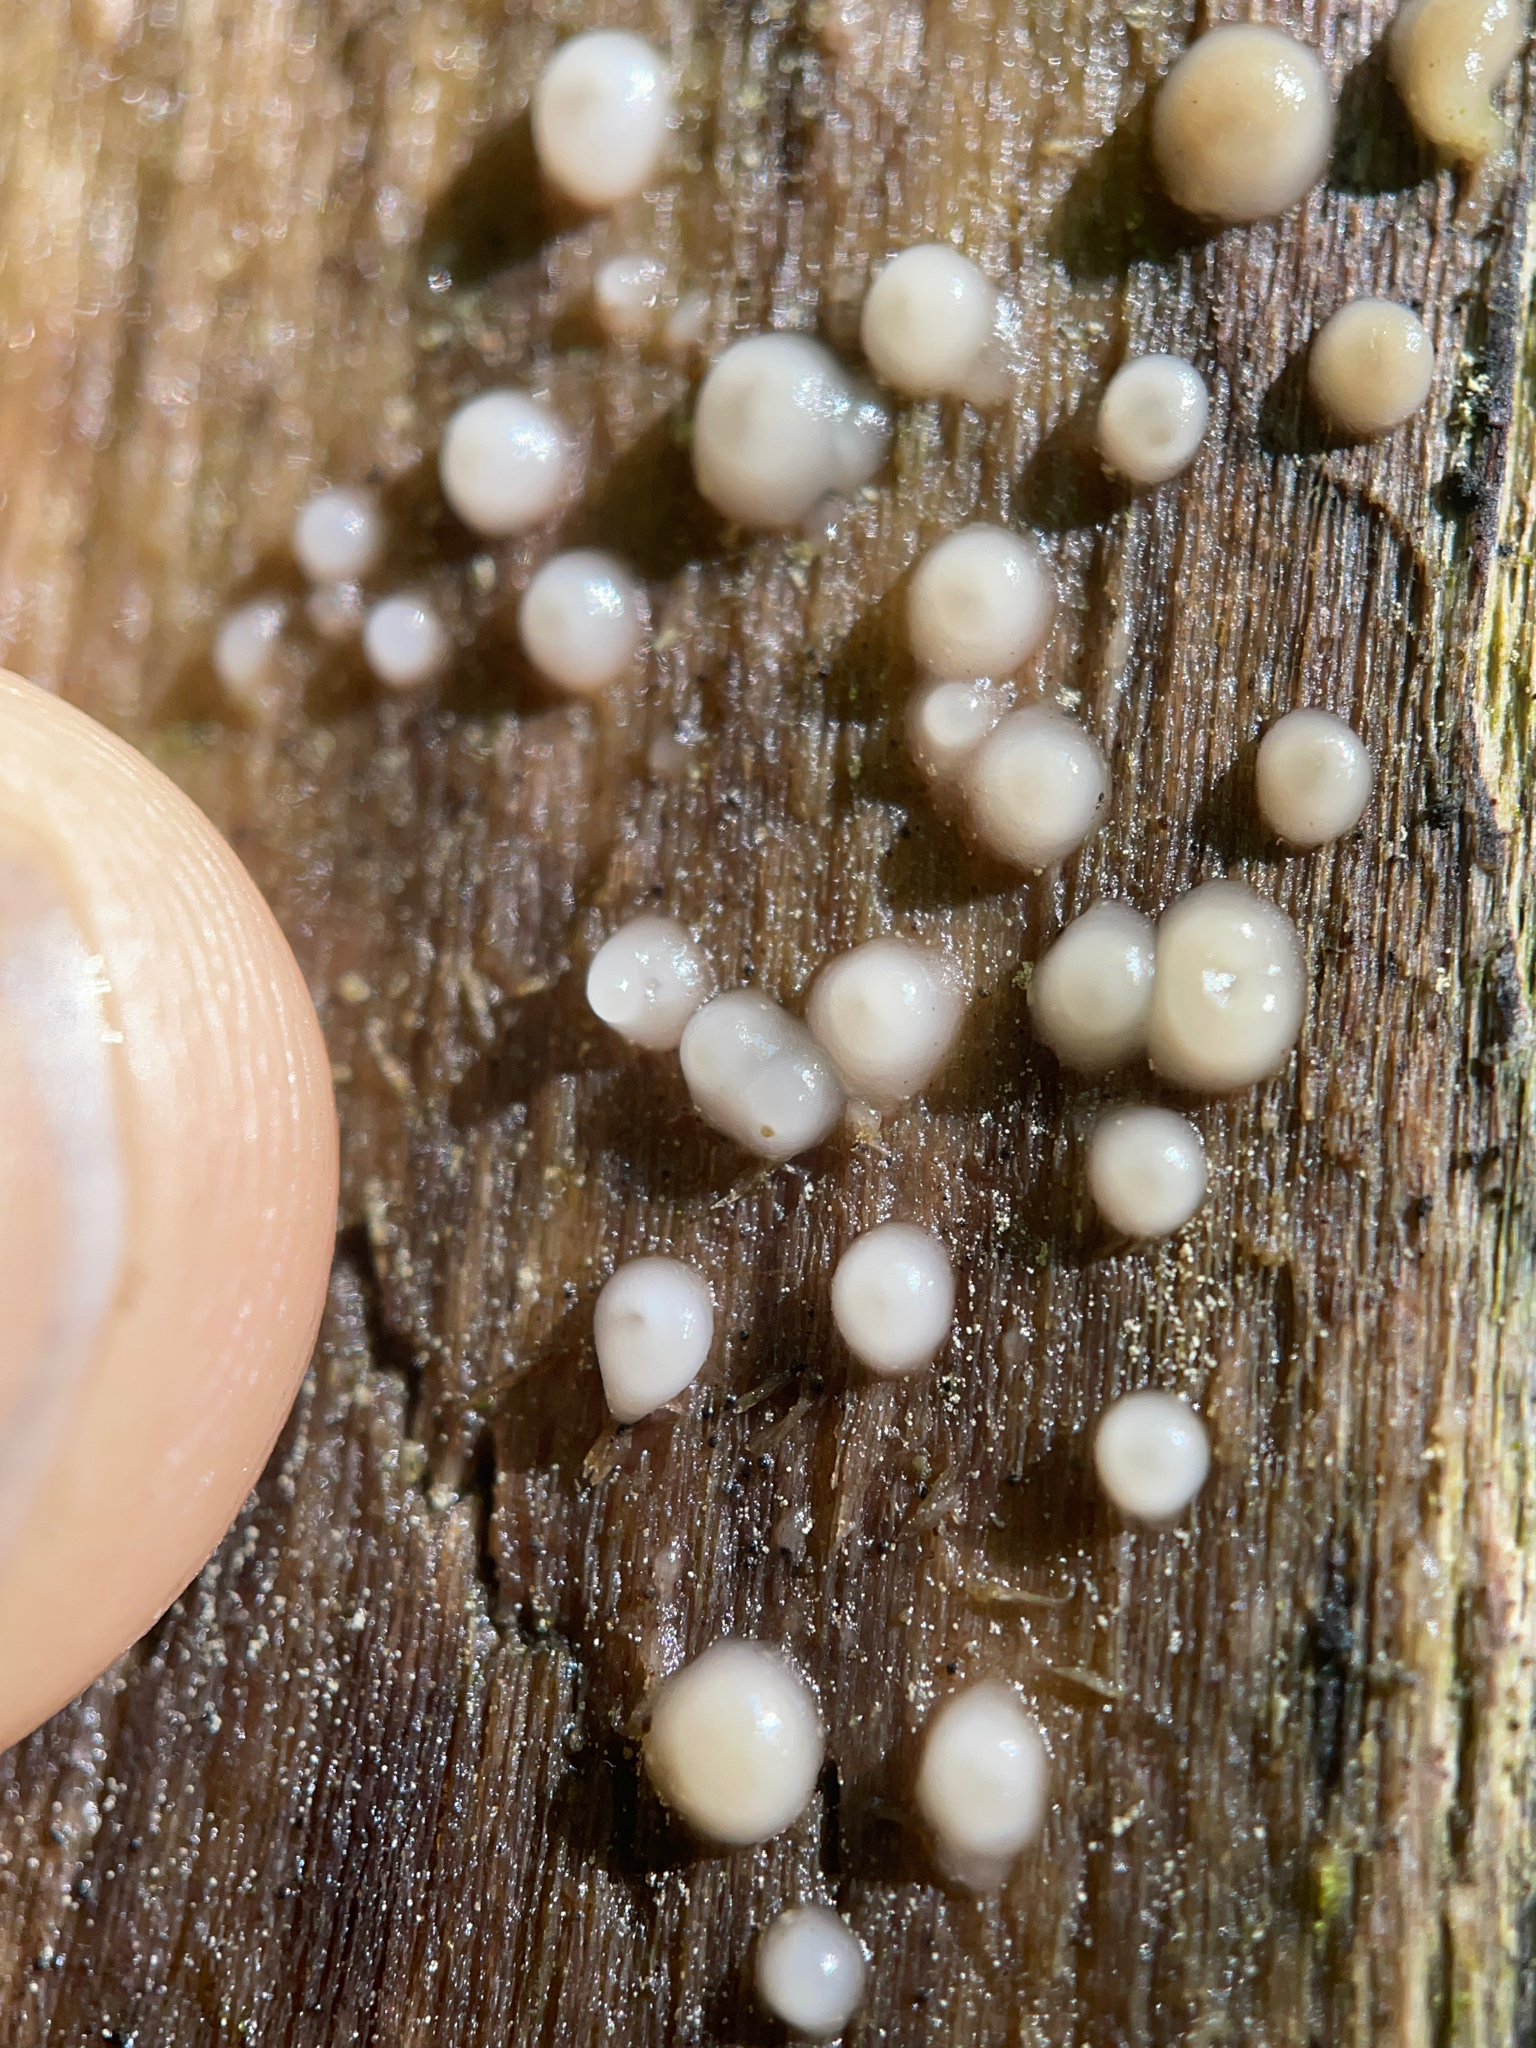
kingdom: Fungi
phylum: Basidiomycota
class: Atractiellomycetes
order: Atractiellales
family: Phleogenaceae
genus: Helicogloea
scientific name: Helicogloea compressa
